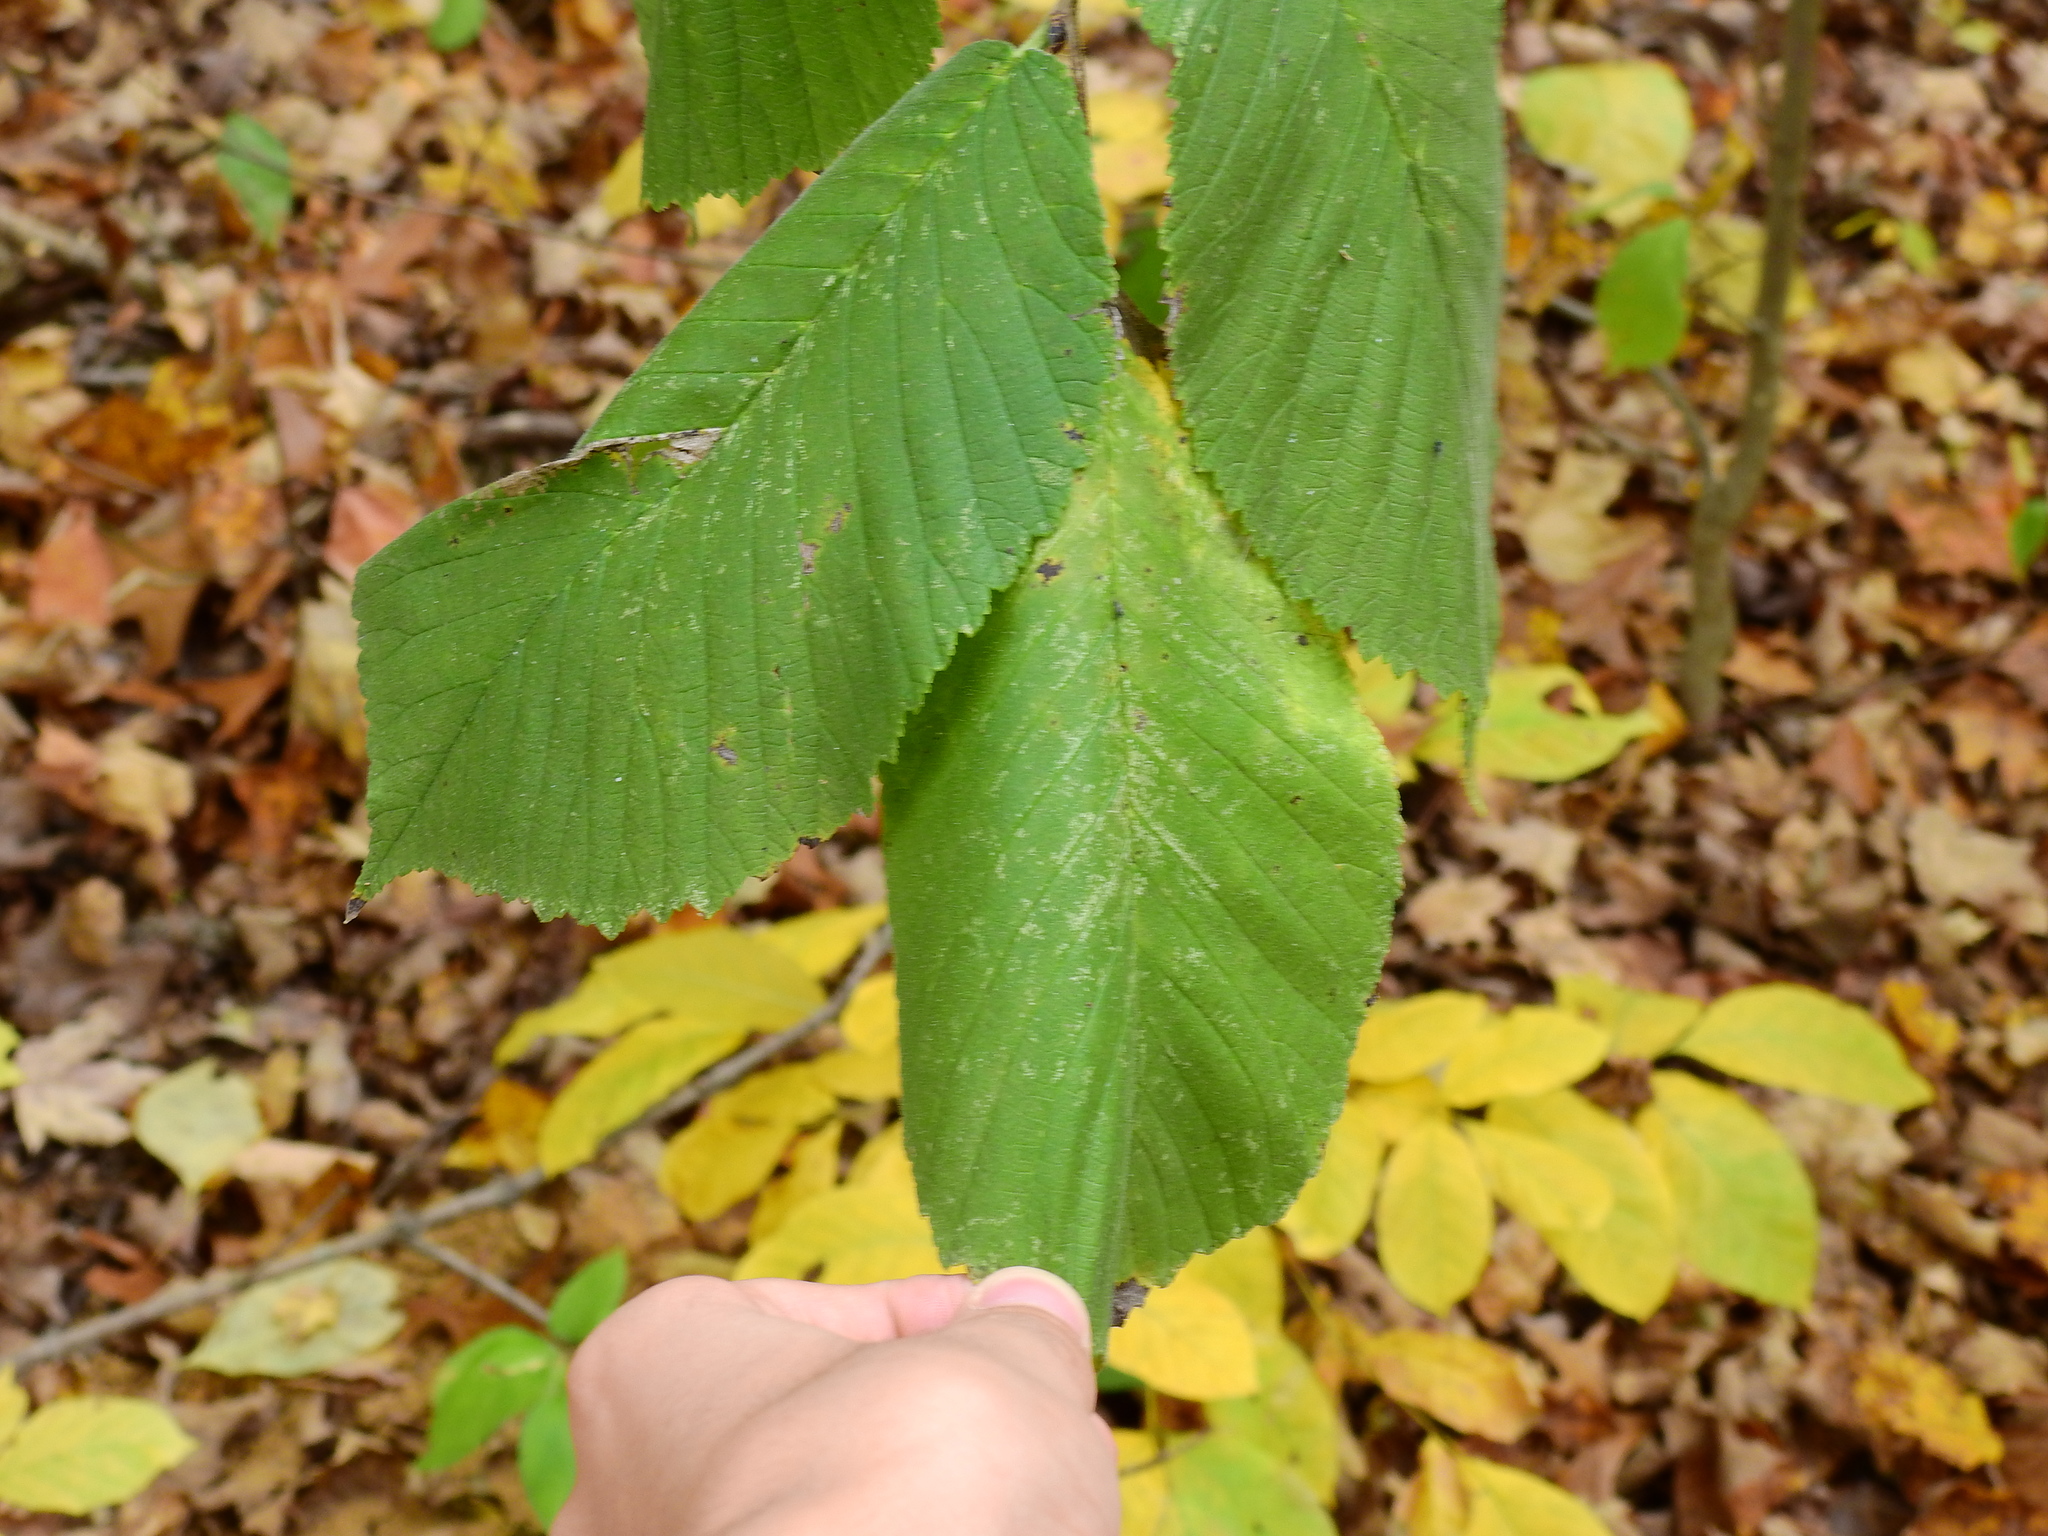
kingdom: Plantae
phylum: Tracheophyta
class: Magnoliopsida
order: Rosales
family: Ulmaceae
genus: Ulmus
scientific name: Ulmus rubra
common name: Slippery elm
